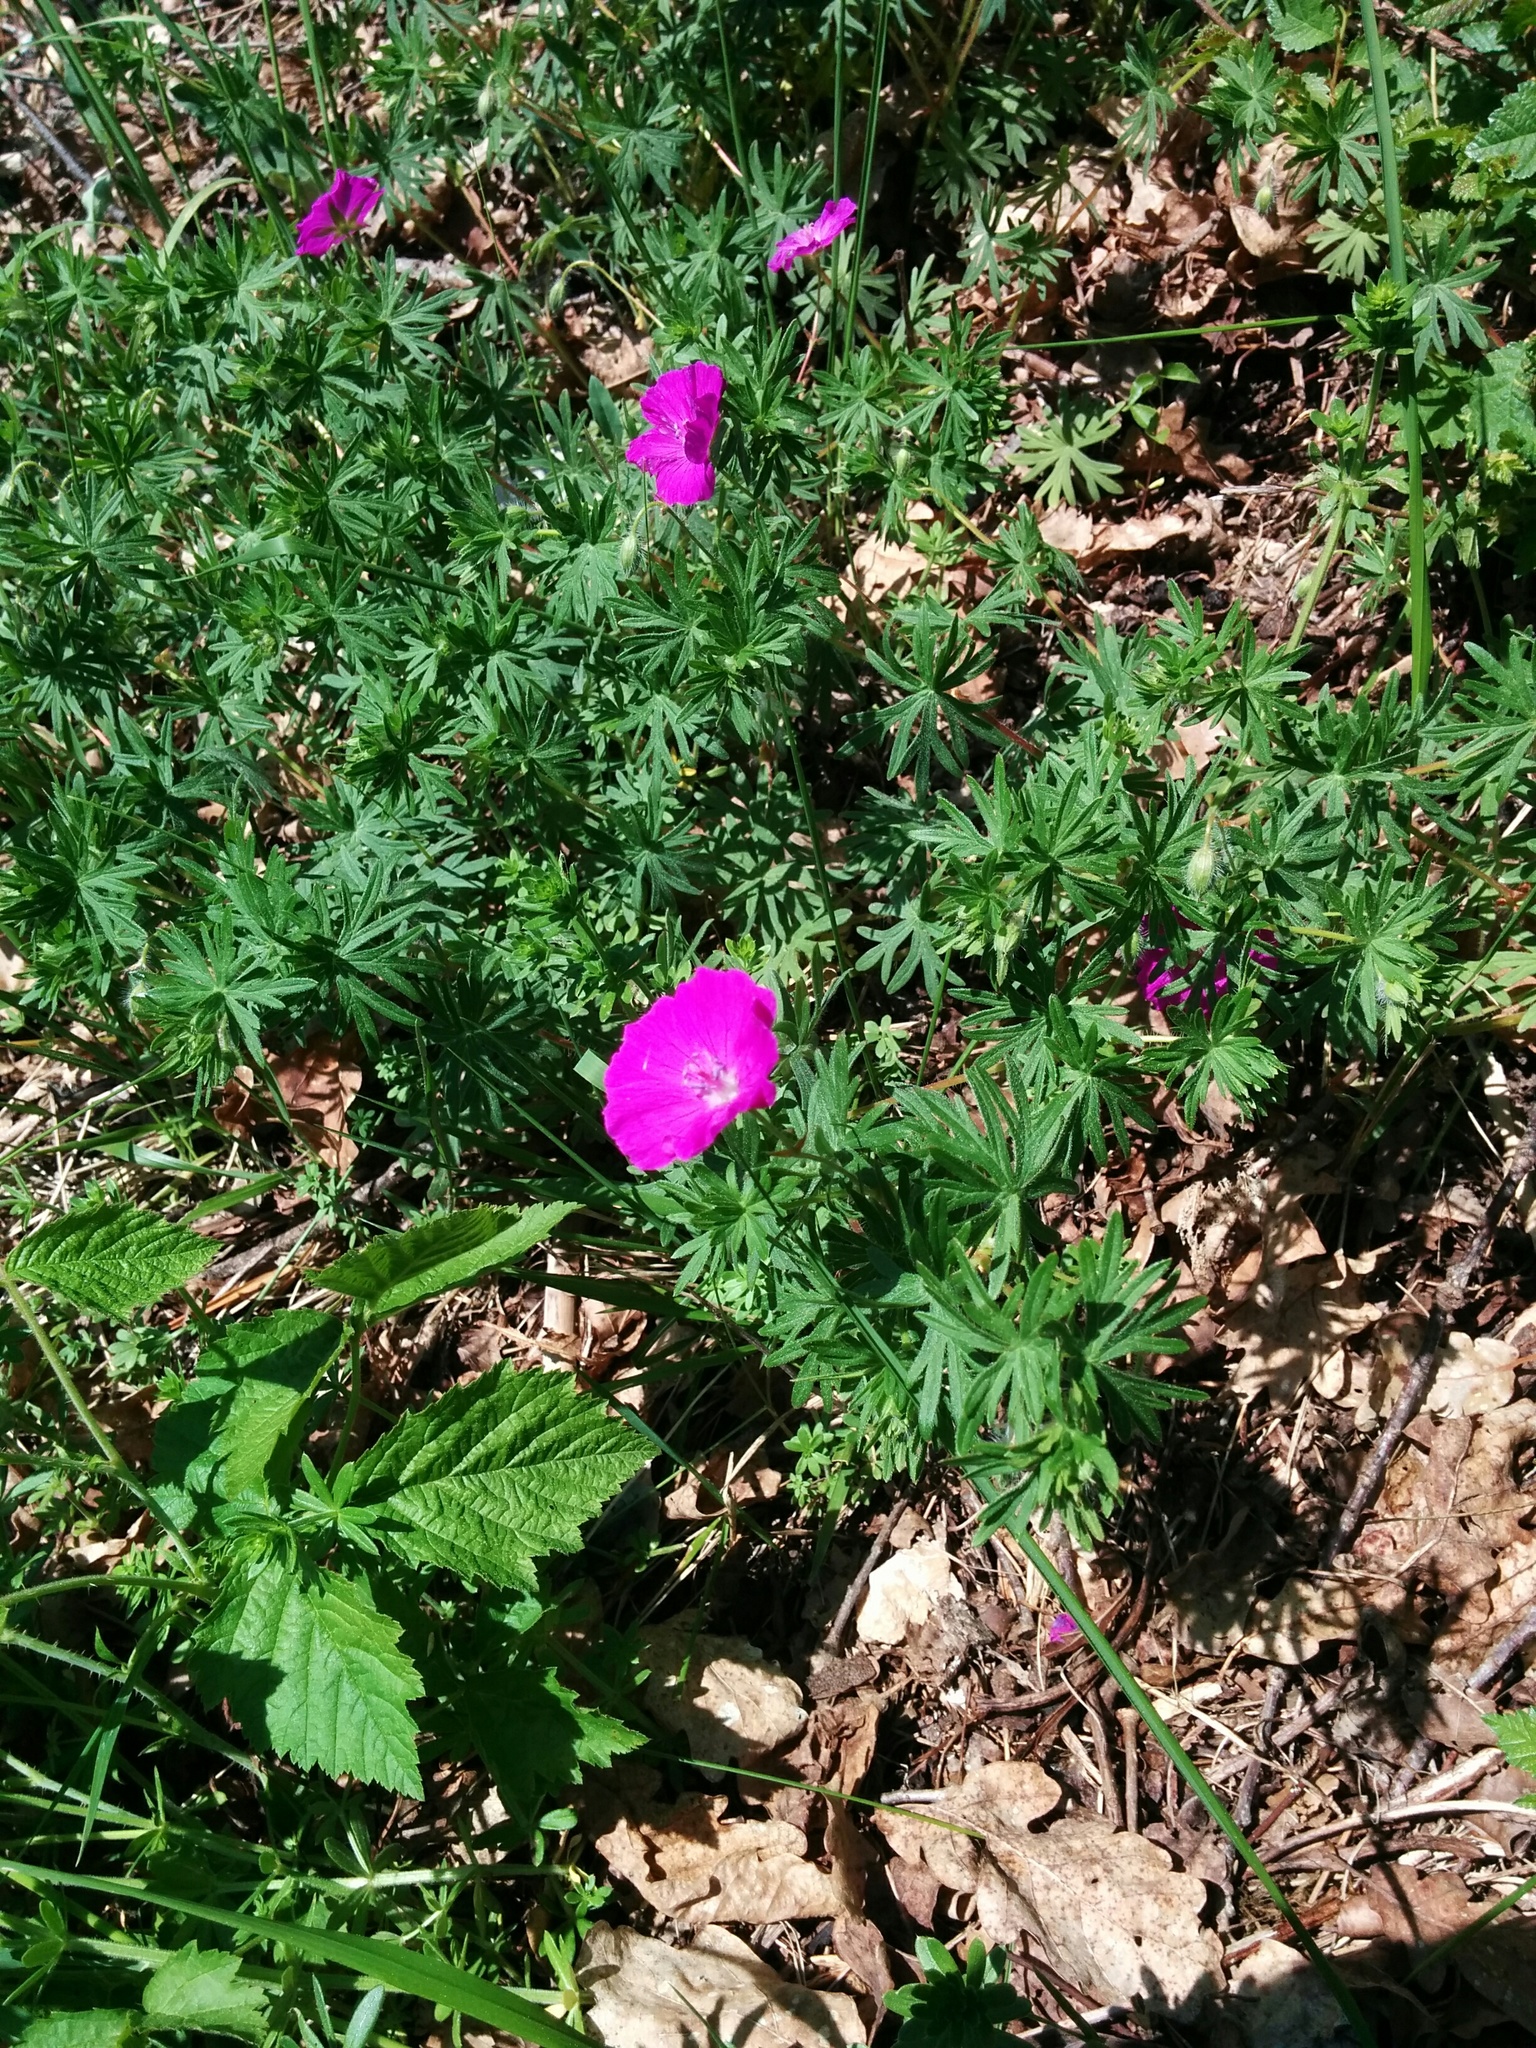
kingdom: Plantae
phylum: Tracheophyta
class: Magnoliopsida
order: Geraniales
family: Geraniaceae
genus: Geranium
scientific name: Geranium sanguineum
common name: Bloody crane's-bill
